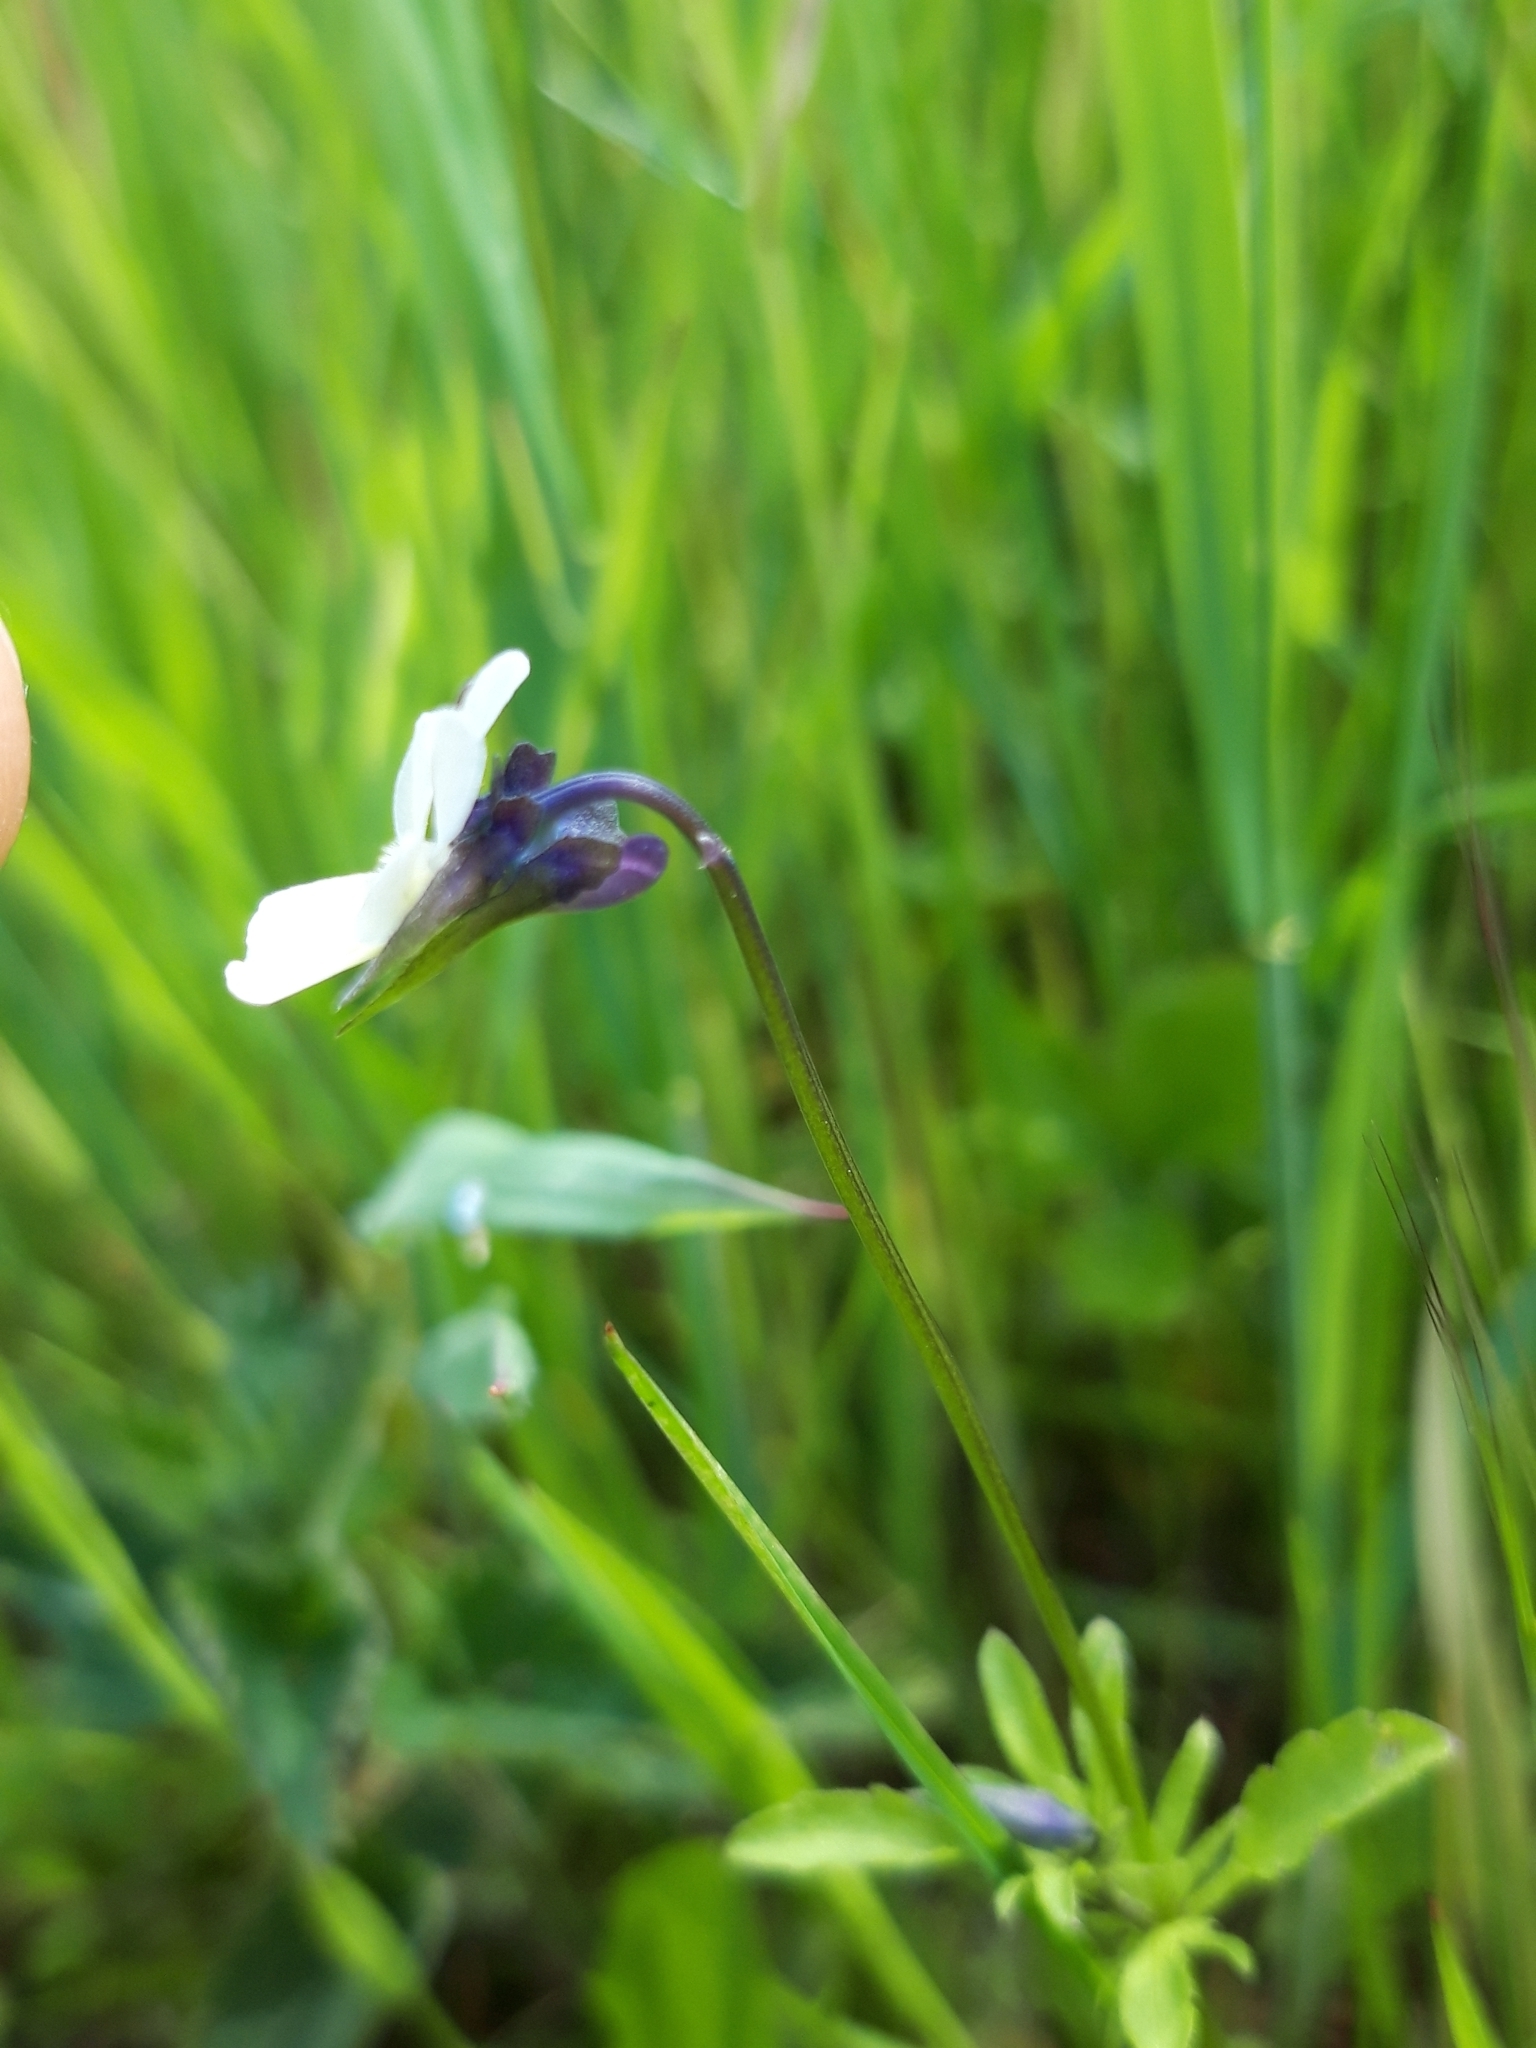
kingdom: Plantae
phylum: Tracheophyta
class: Magnoliopsida
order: Malpighiales
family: Violaceae
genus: Viola
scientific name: Viola arvensis
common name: Field pansy
